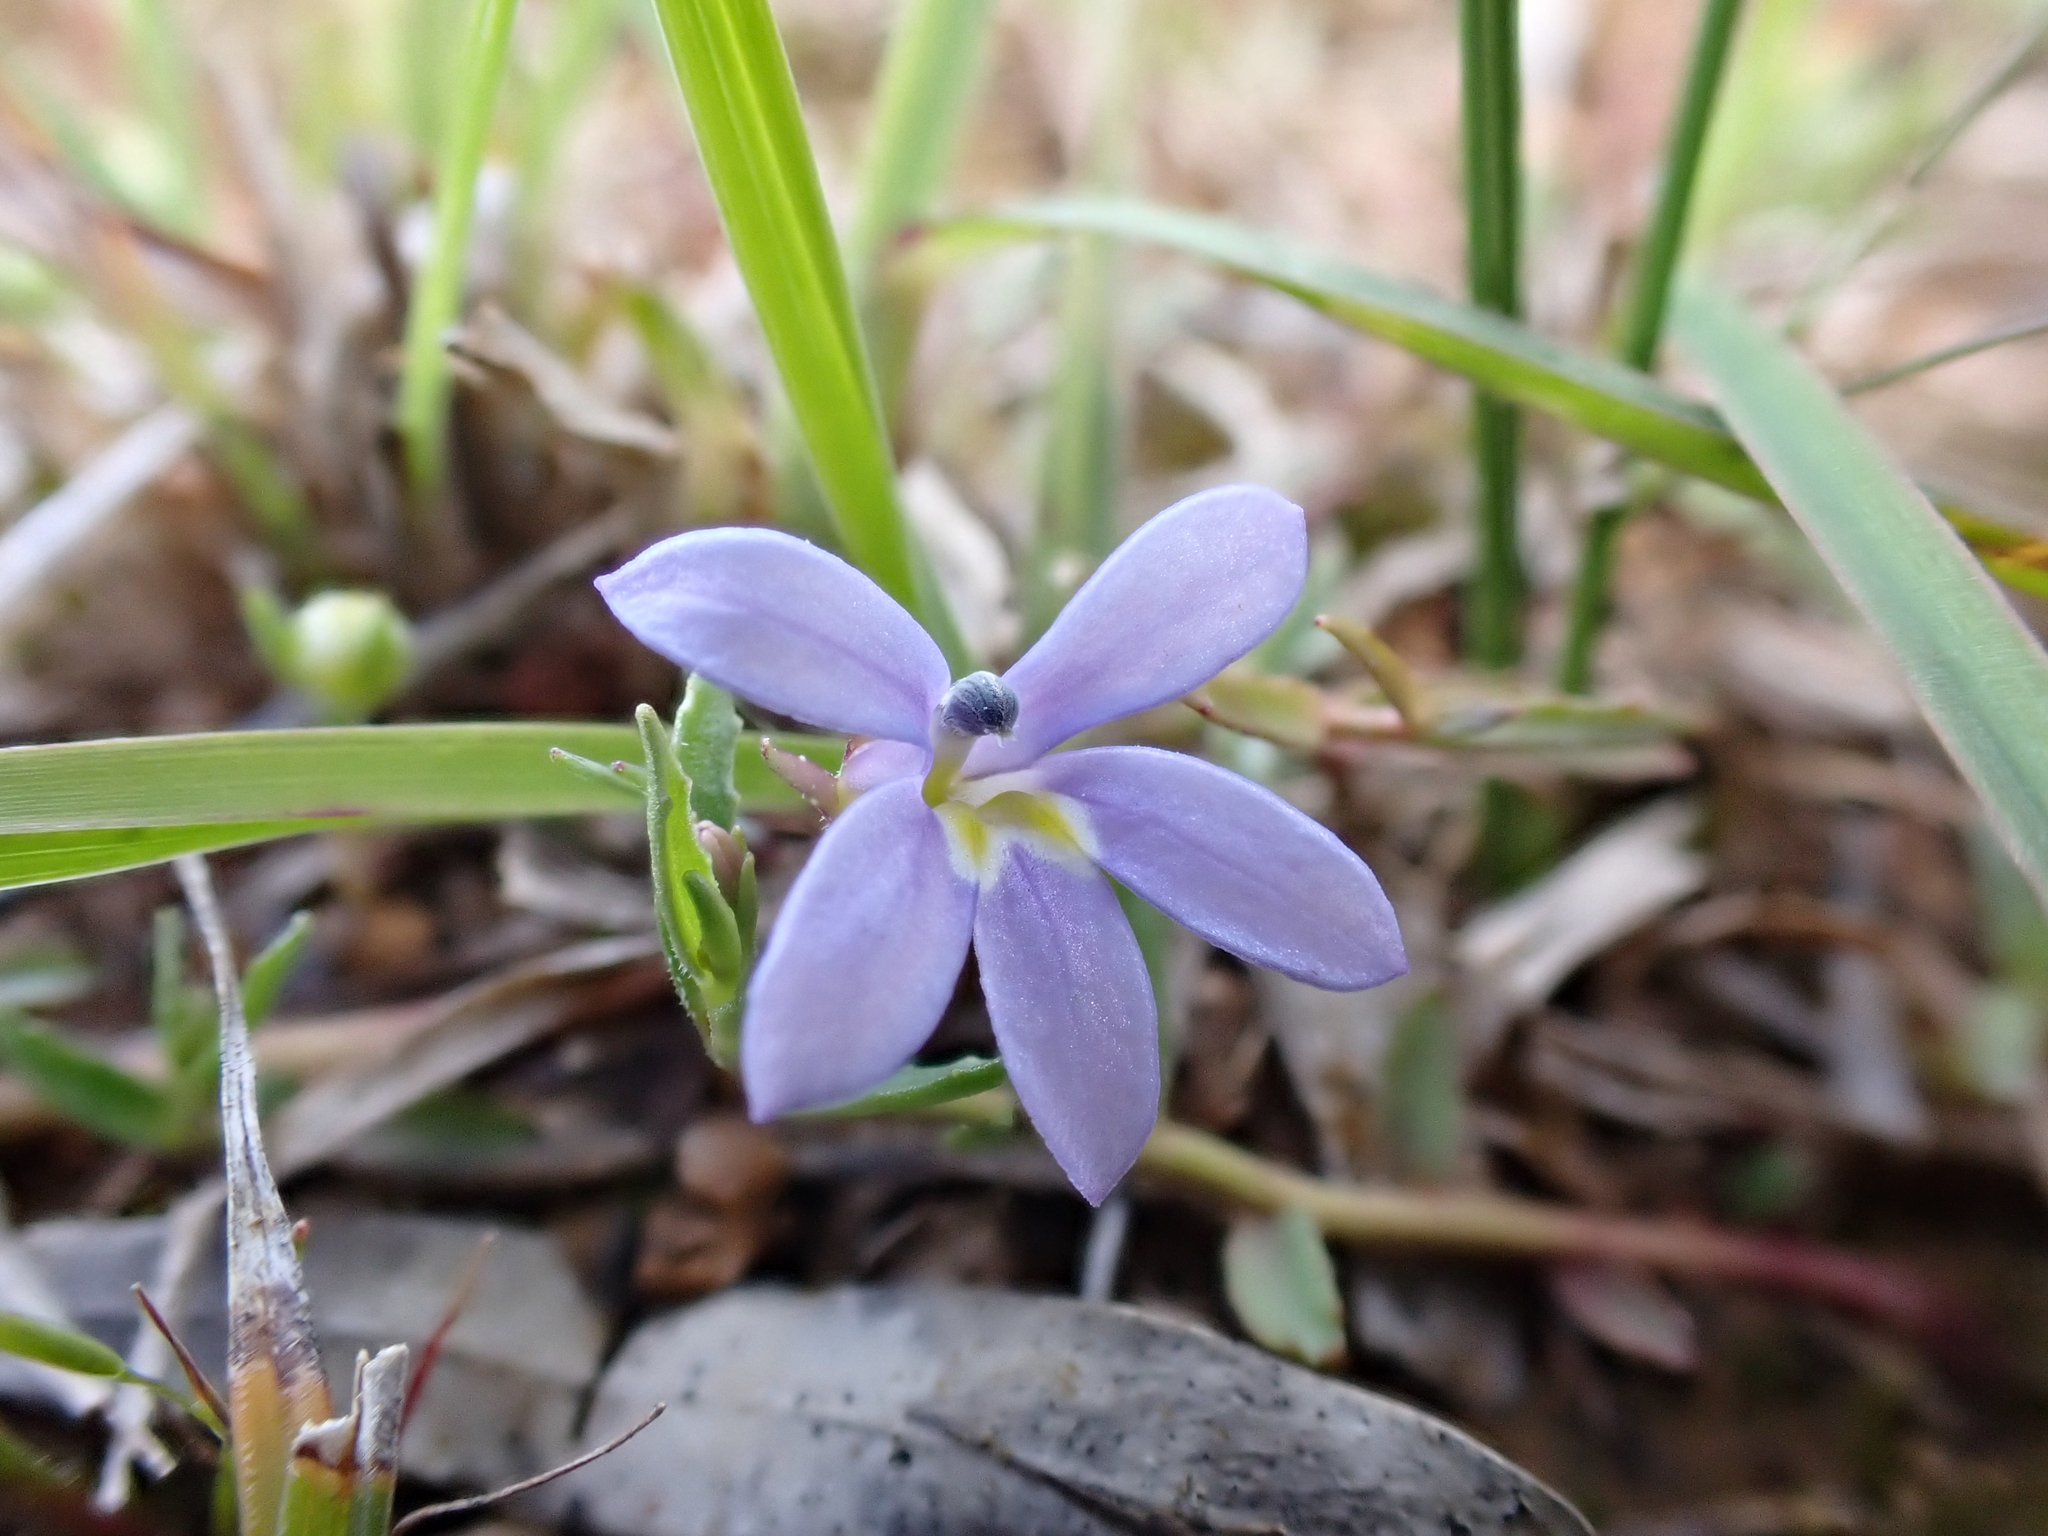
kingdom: Plantae
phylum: Tracheophyta
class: Magnoliopsida
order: Asterales
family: Campanulaceae
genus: Lobelia
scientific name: Lobelia pratioides
